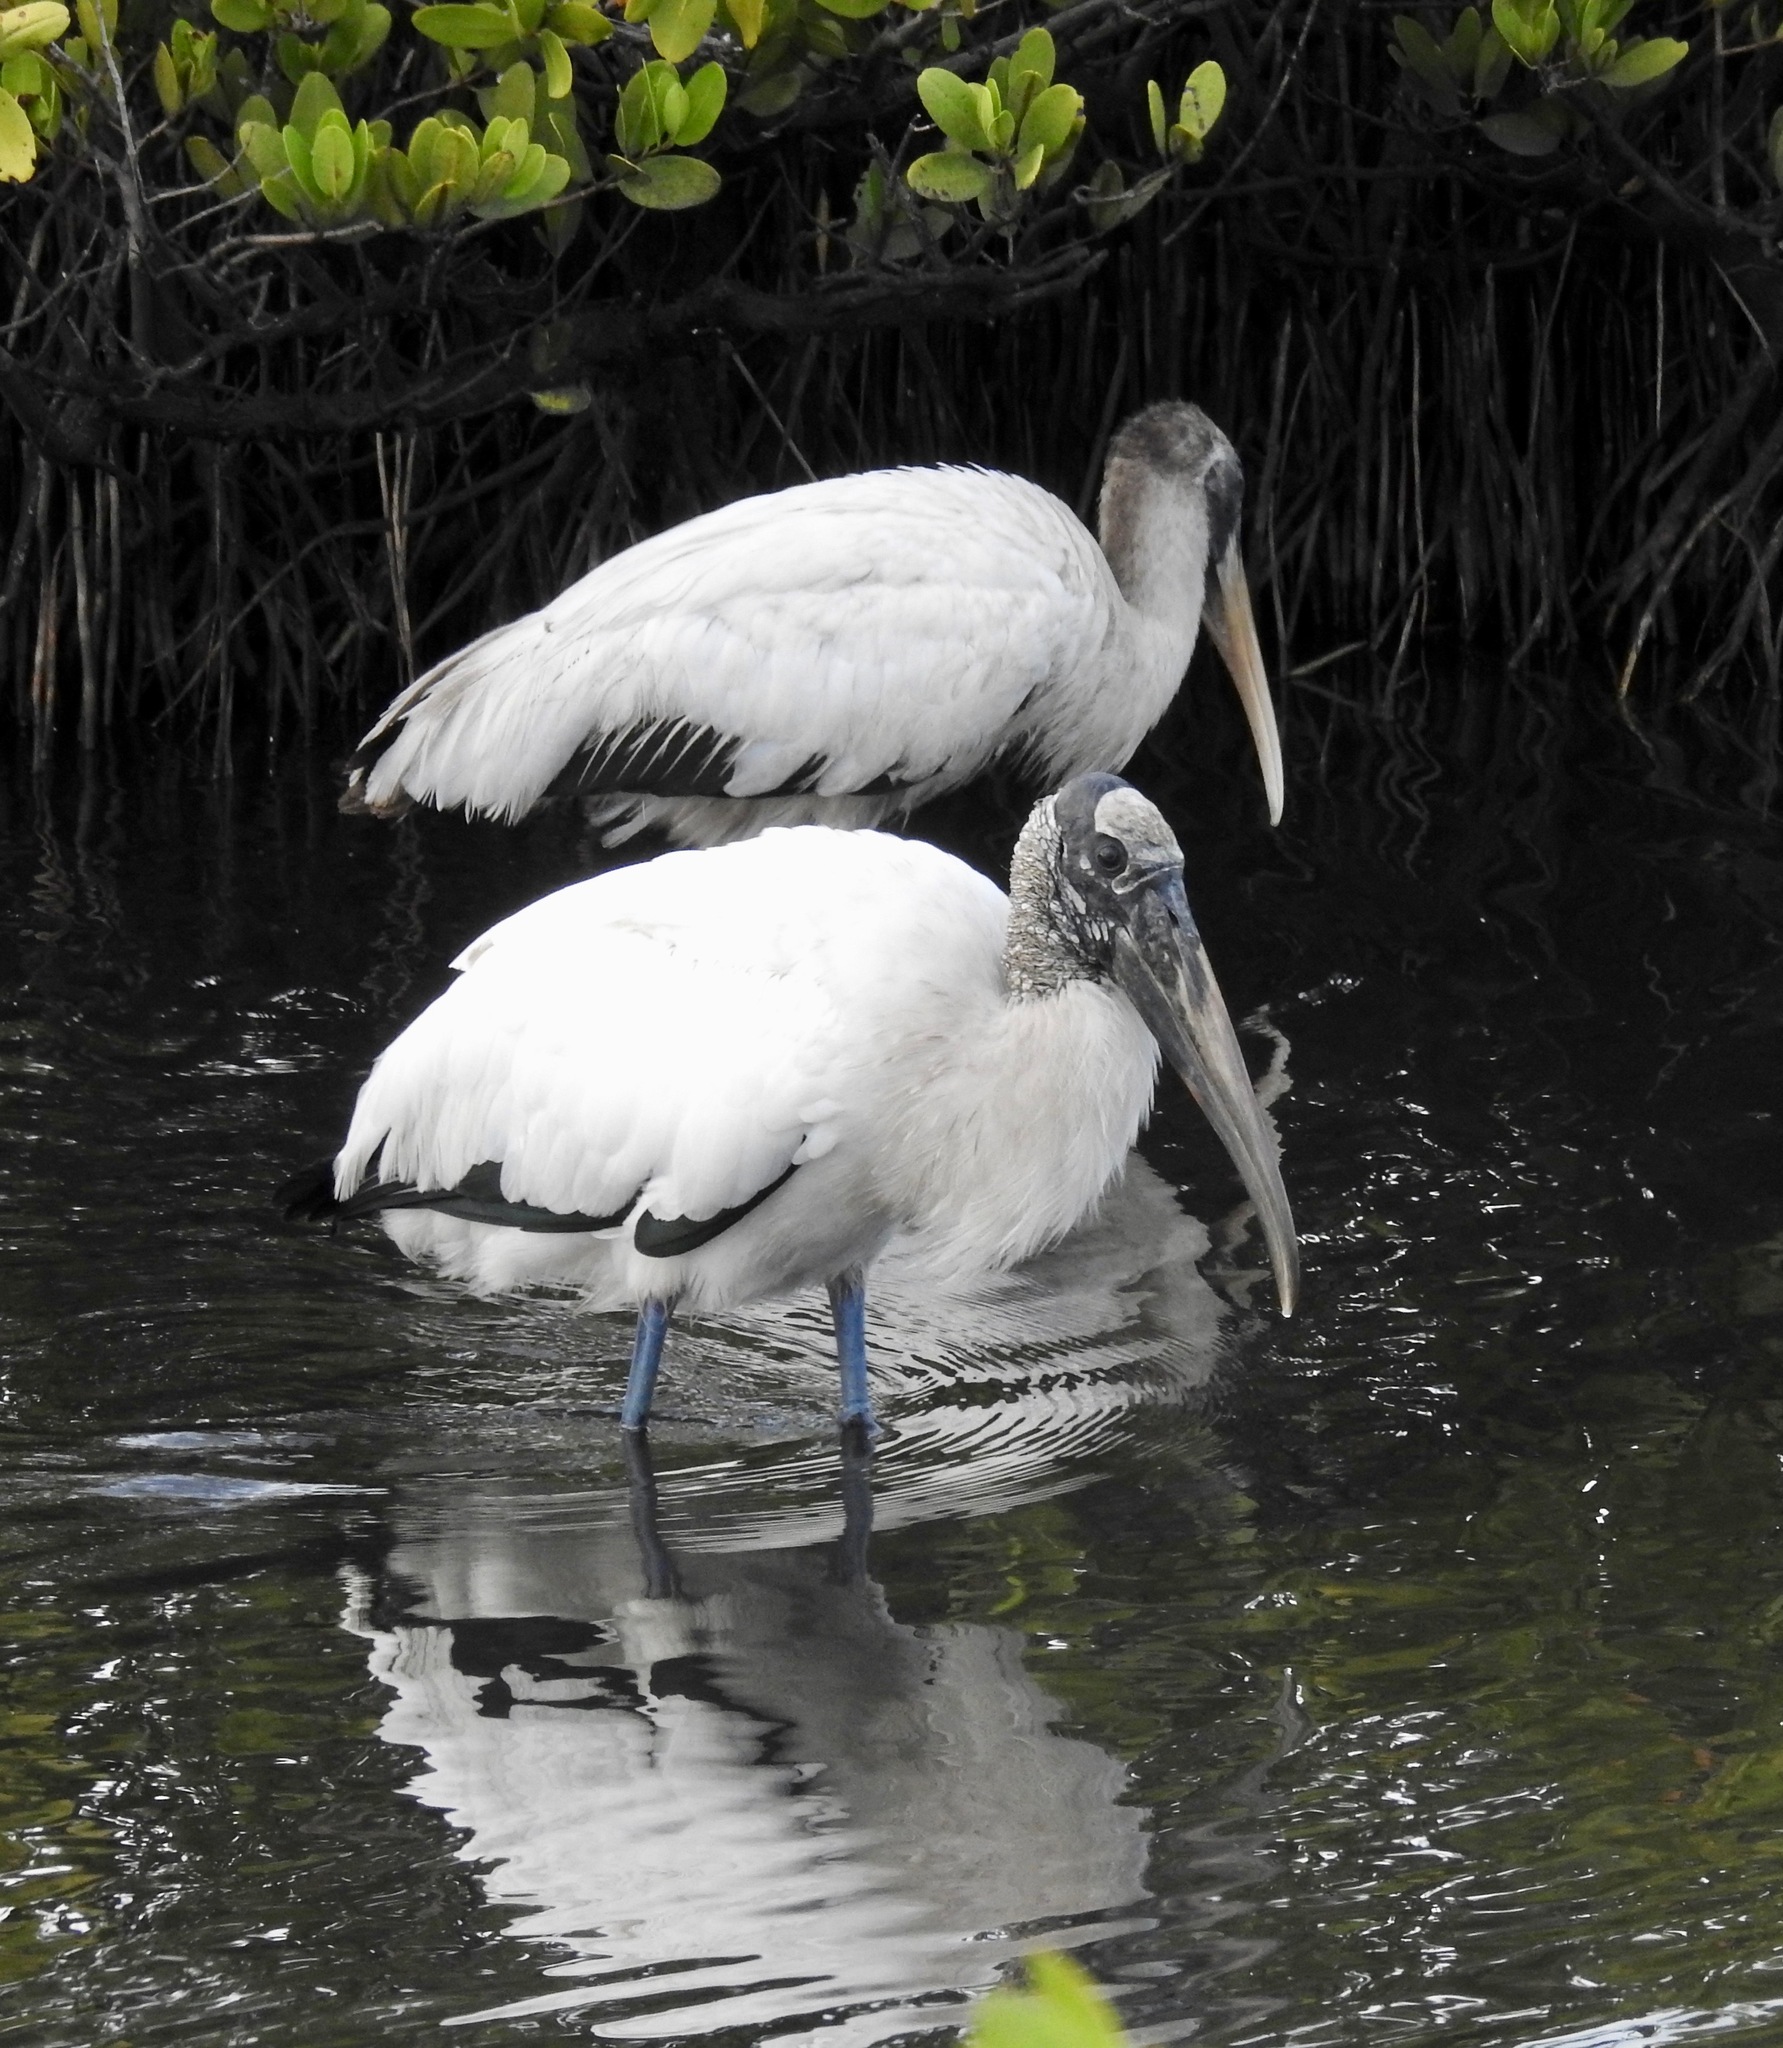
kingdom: Animalia
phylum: Chordata
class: Aves
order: Ciconiiformes
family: Ciconiidae
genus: Mycteria
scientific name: Mycteria americana
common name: Wood stork
